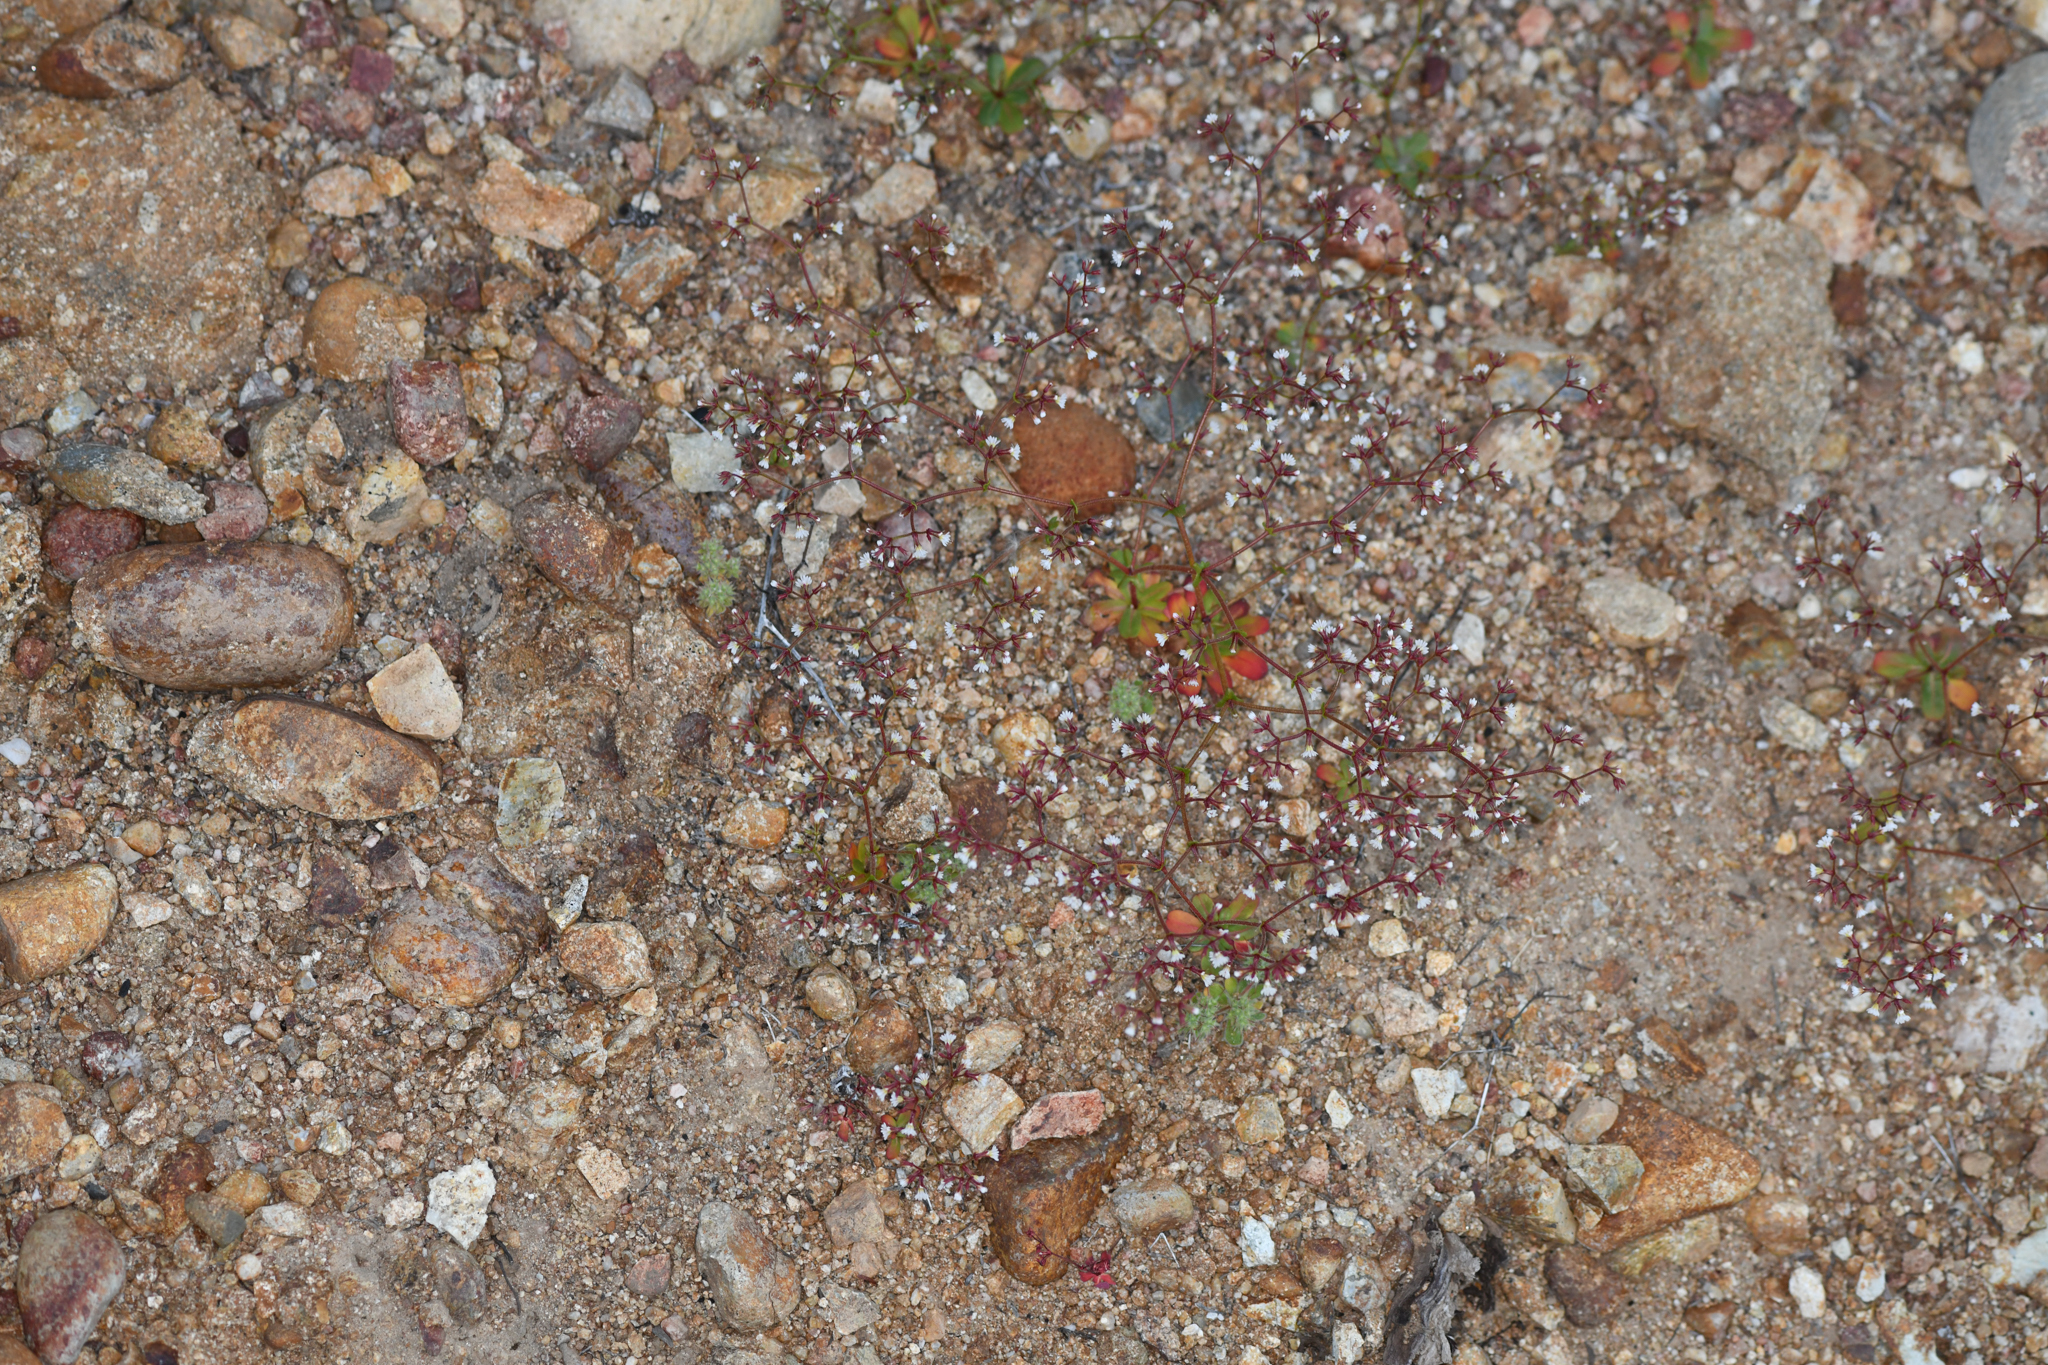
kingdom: Plantae
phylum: Tracheophyta
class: Magnoliopsida
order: Caryophyllales
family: Polygonaceae
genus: Systenotheca
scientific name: Systenotheca vortriedei
